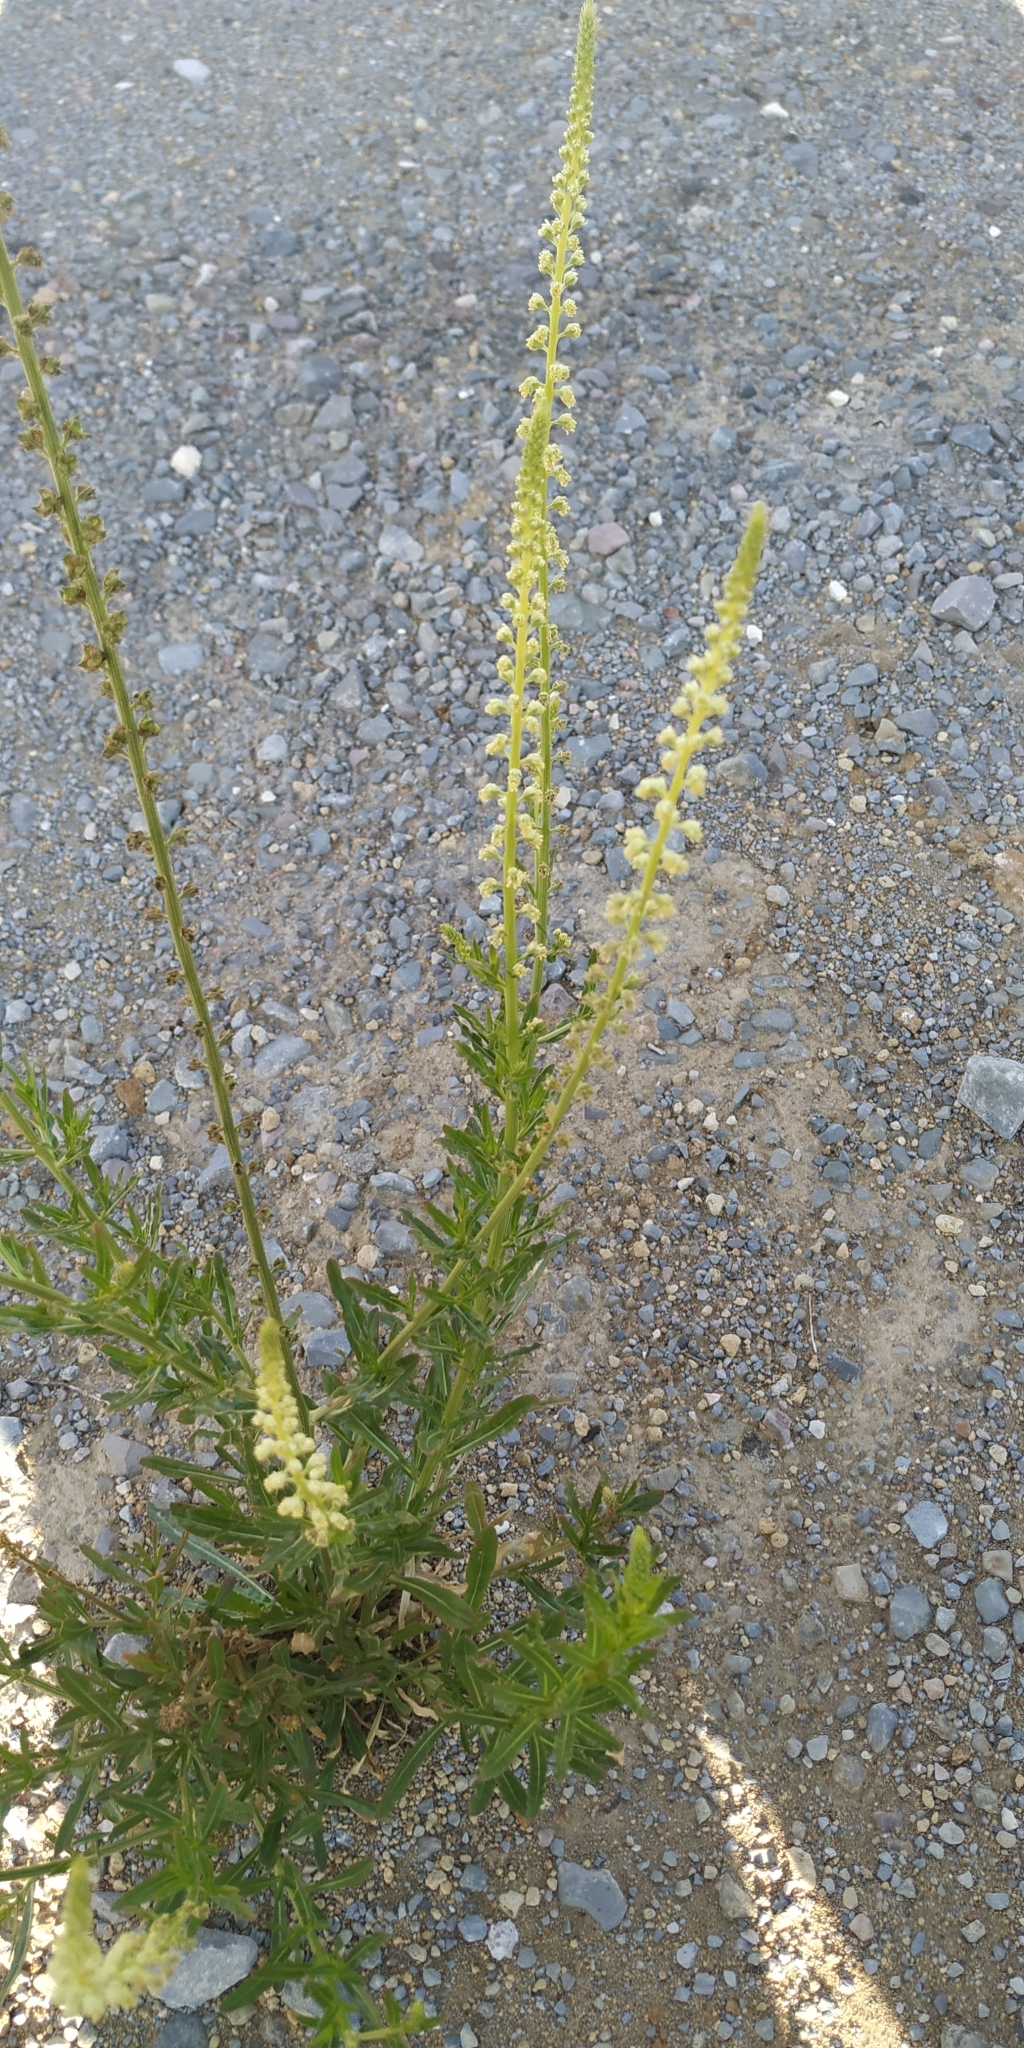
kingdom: Plantae
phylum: Tracheophyta
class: Magnoliopsida
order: Brassicales
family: Resedaceae
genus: Reseda
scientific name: Reseda luteola
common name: Weld
